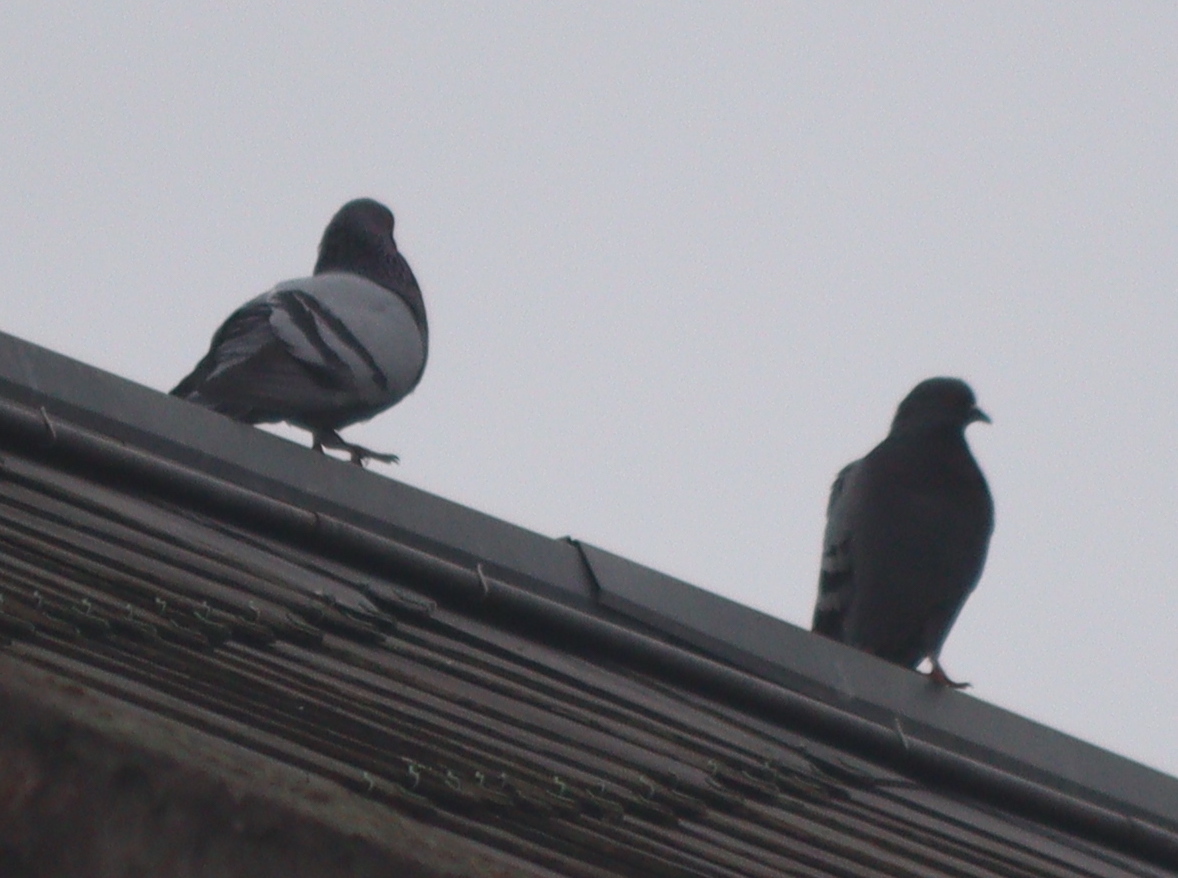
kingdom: Animalia
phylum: Chordata
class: Aves
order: Columbiformes
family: Columbidae
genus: Columba
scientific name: Columba livia
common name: Rock pigeon
